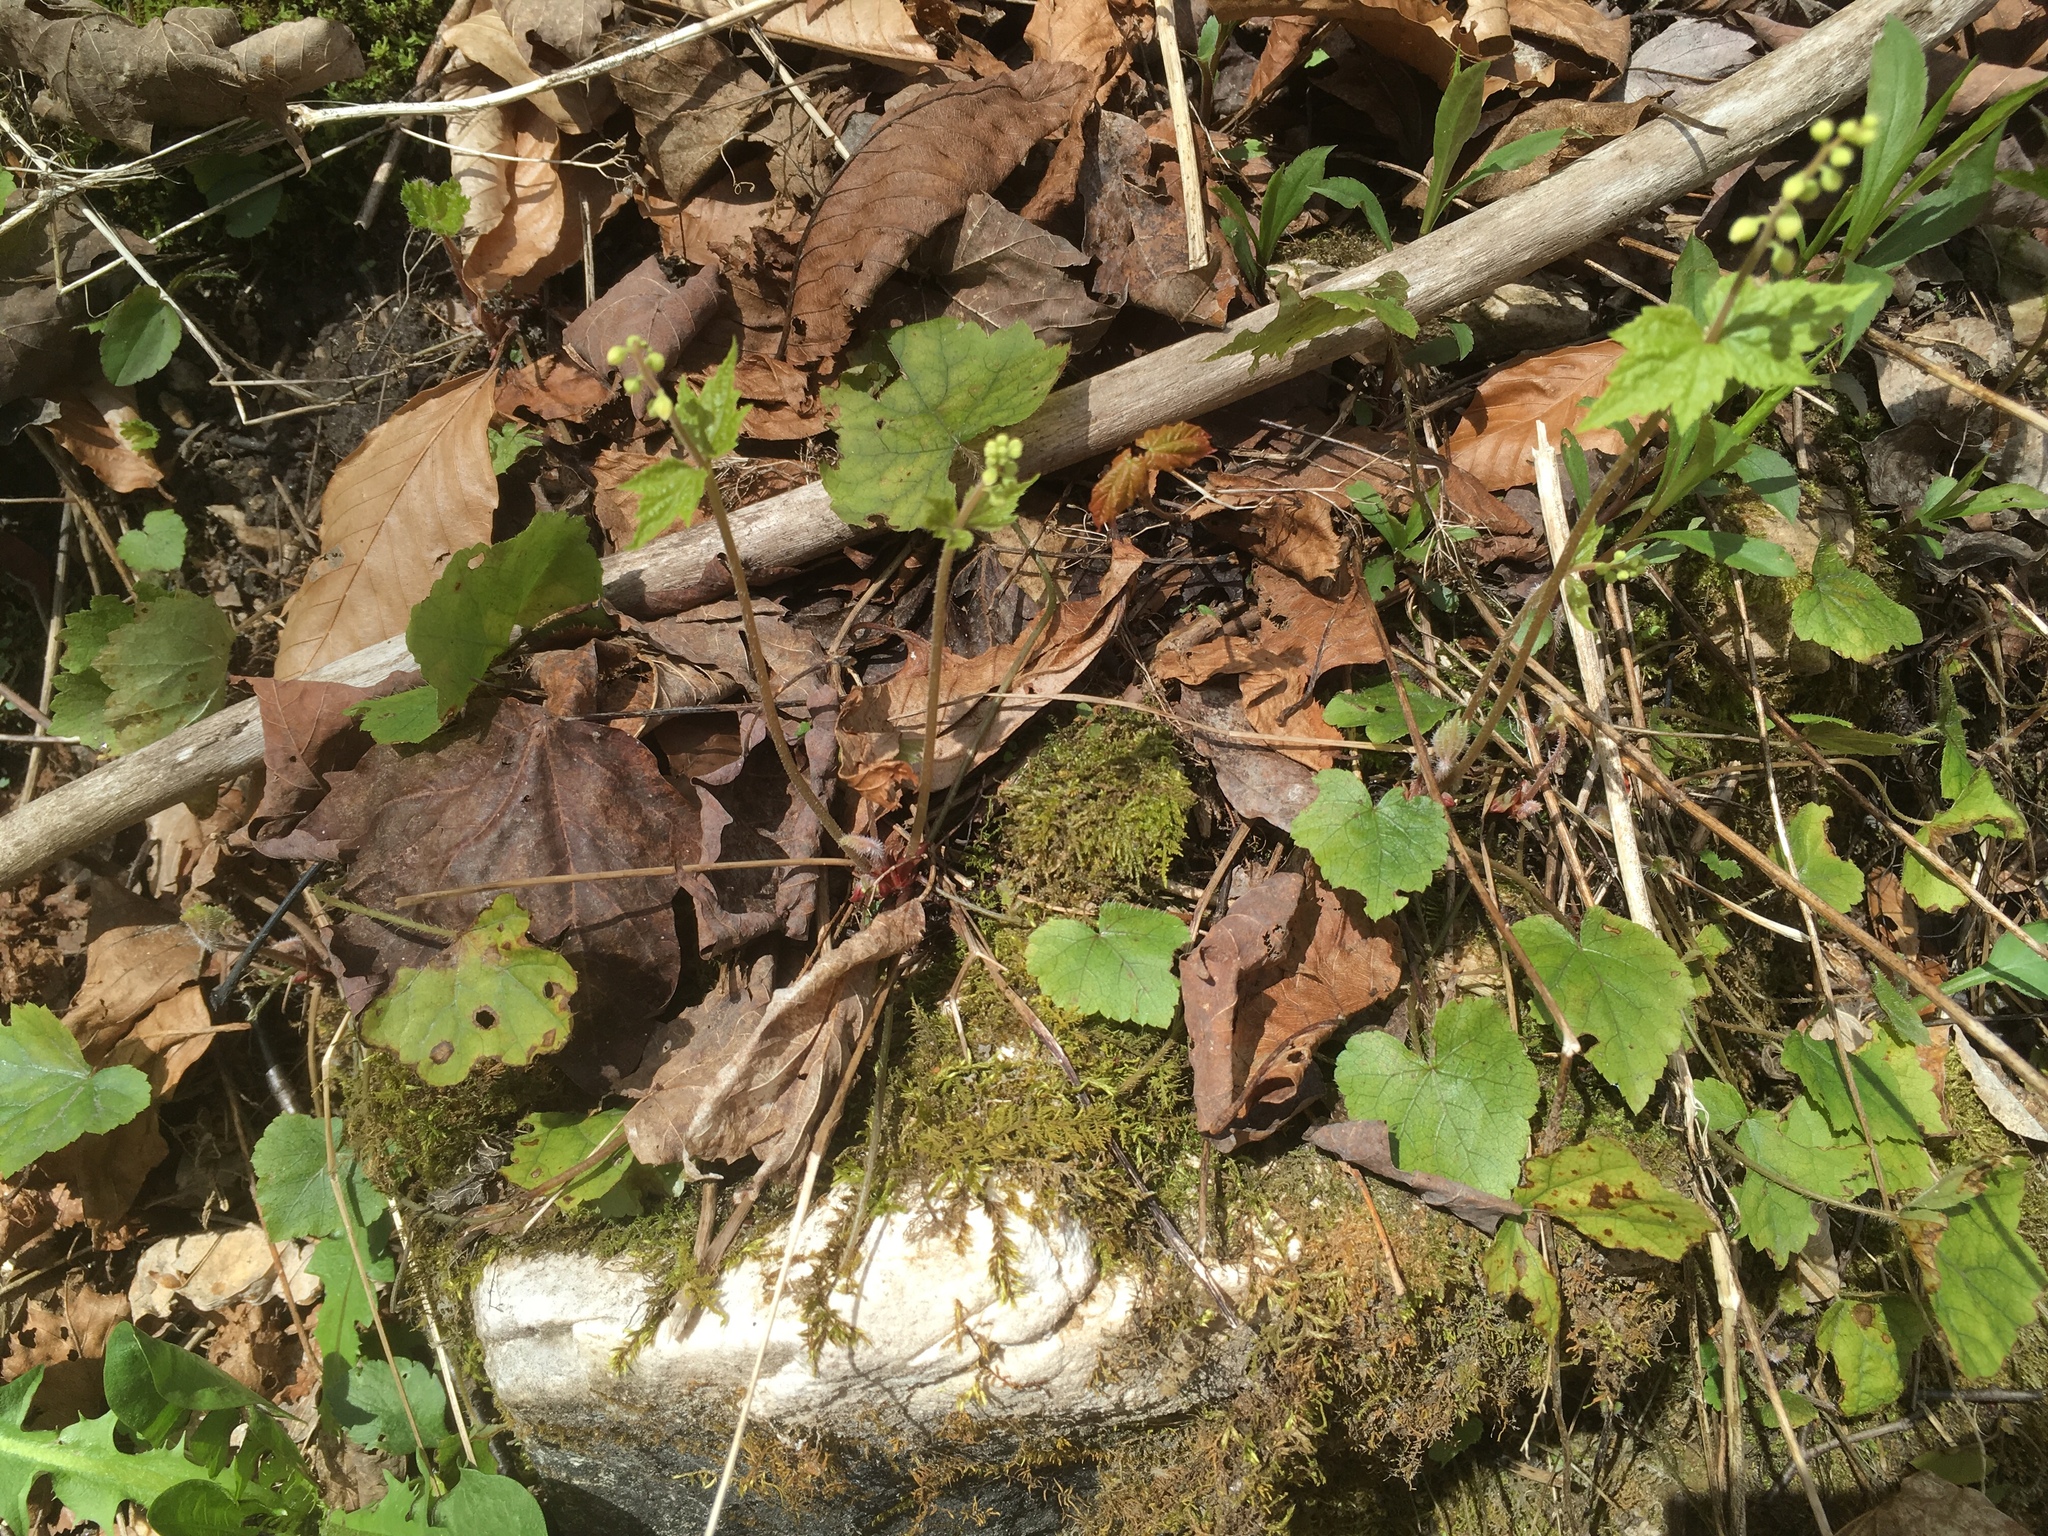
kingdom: Plantae
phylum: Tracheophyta
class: Magnoliopsida
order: Saxifragales
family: Saxifragaceae
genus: Mitella
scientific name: Mitella diphylla
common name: Coolwort
